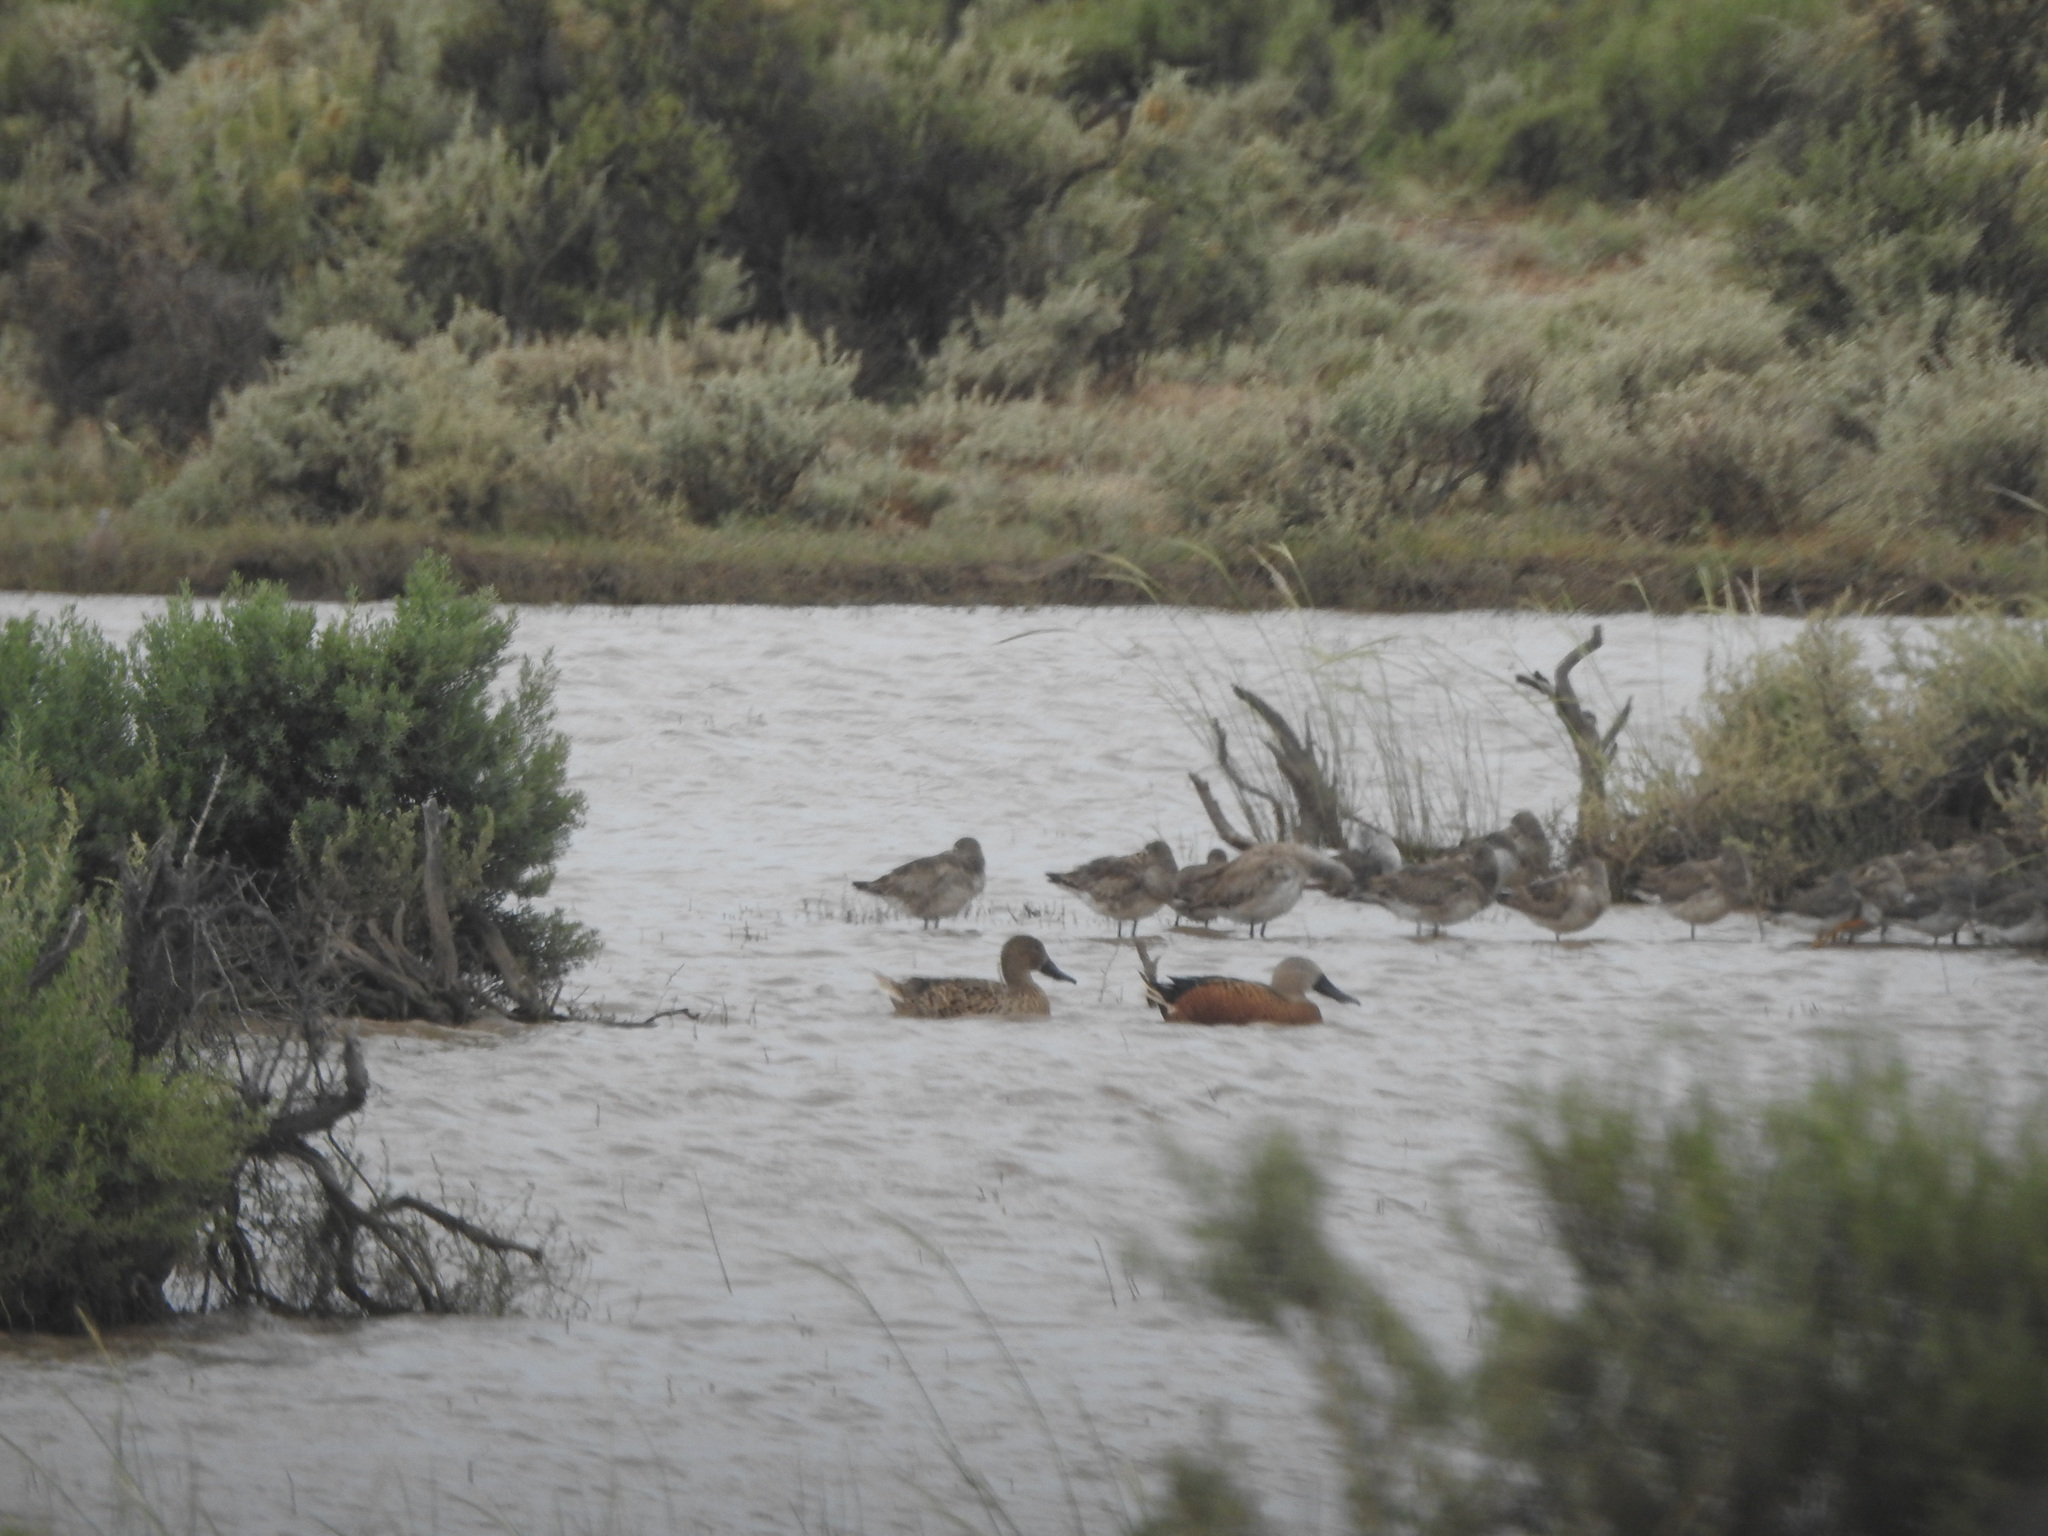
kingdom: Animalia
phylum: Chordata
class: Aves
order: Anseriformes
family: Anatidae
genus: Spatula
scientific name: Spatula platalea
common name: Red shoveler
